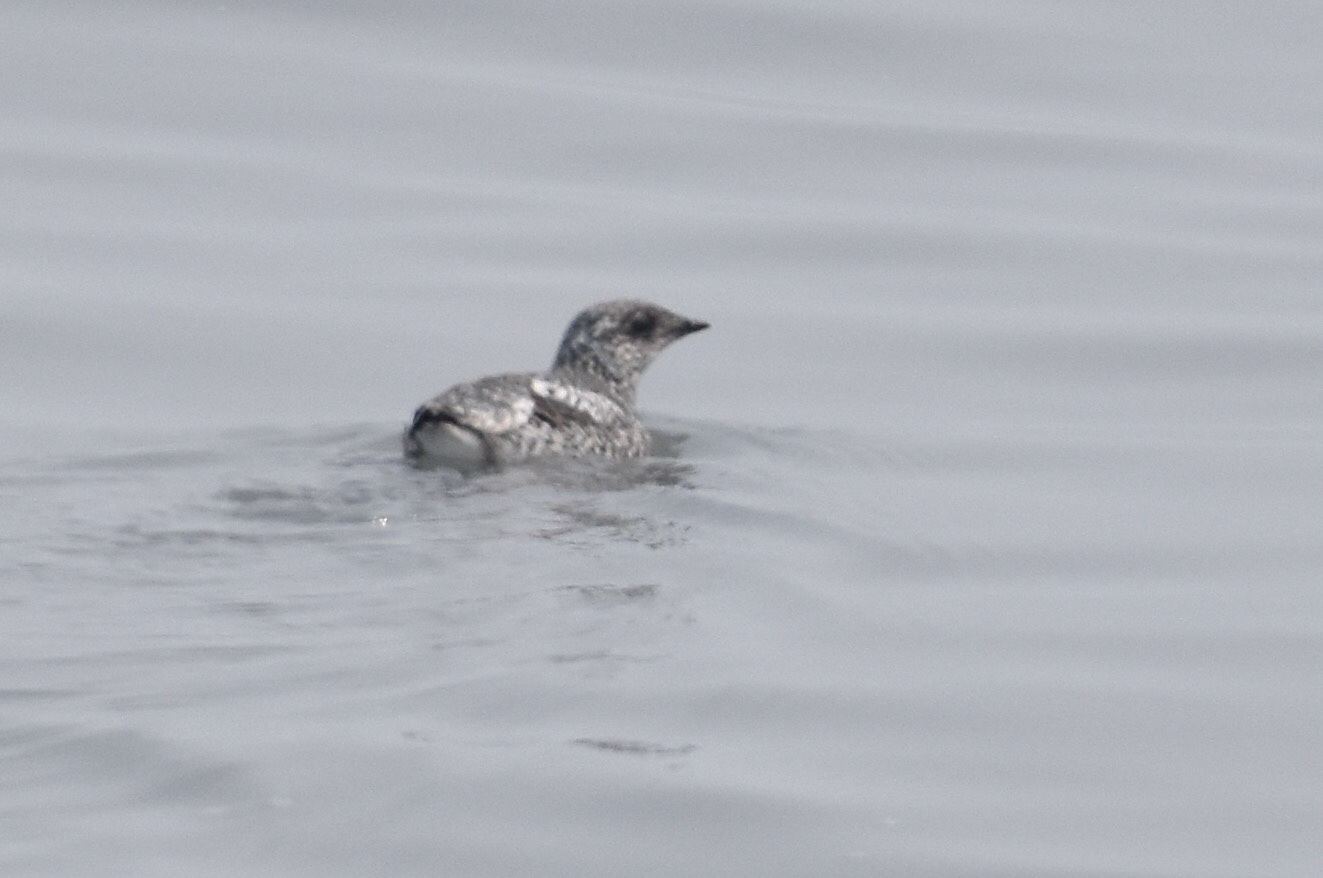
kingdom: Animalia
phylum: Chordata
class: Aves
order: Charadriiformes
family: Alcidae
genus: Brachyramphus
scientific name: Brachyramphus brevirostris
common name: Kittlitz's murrelet
